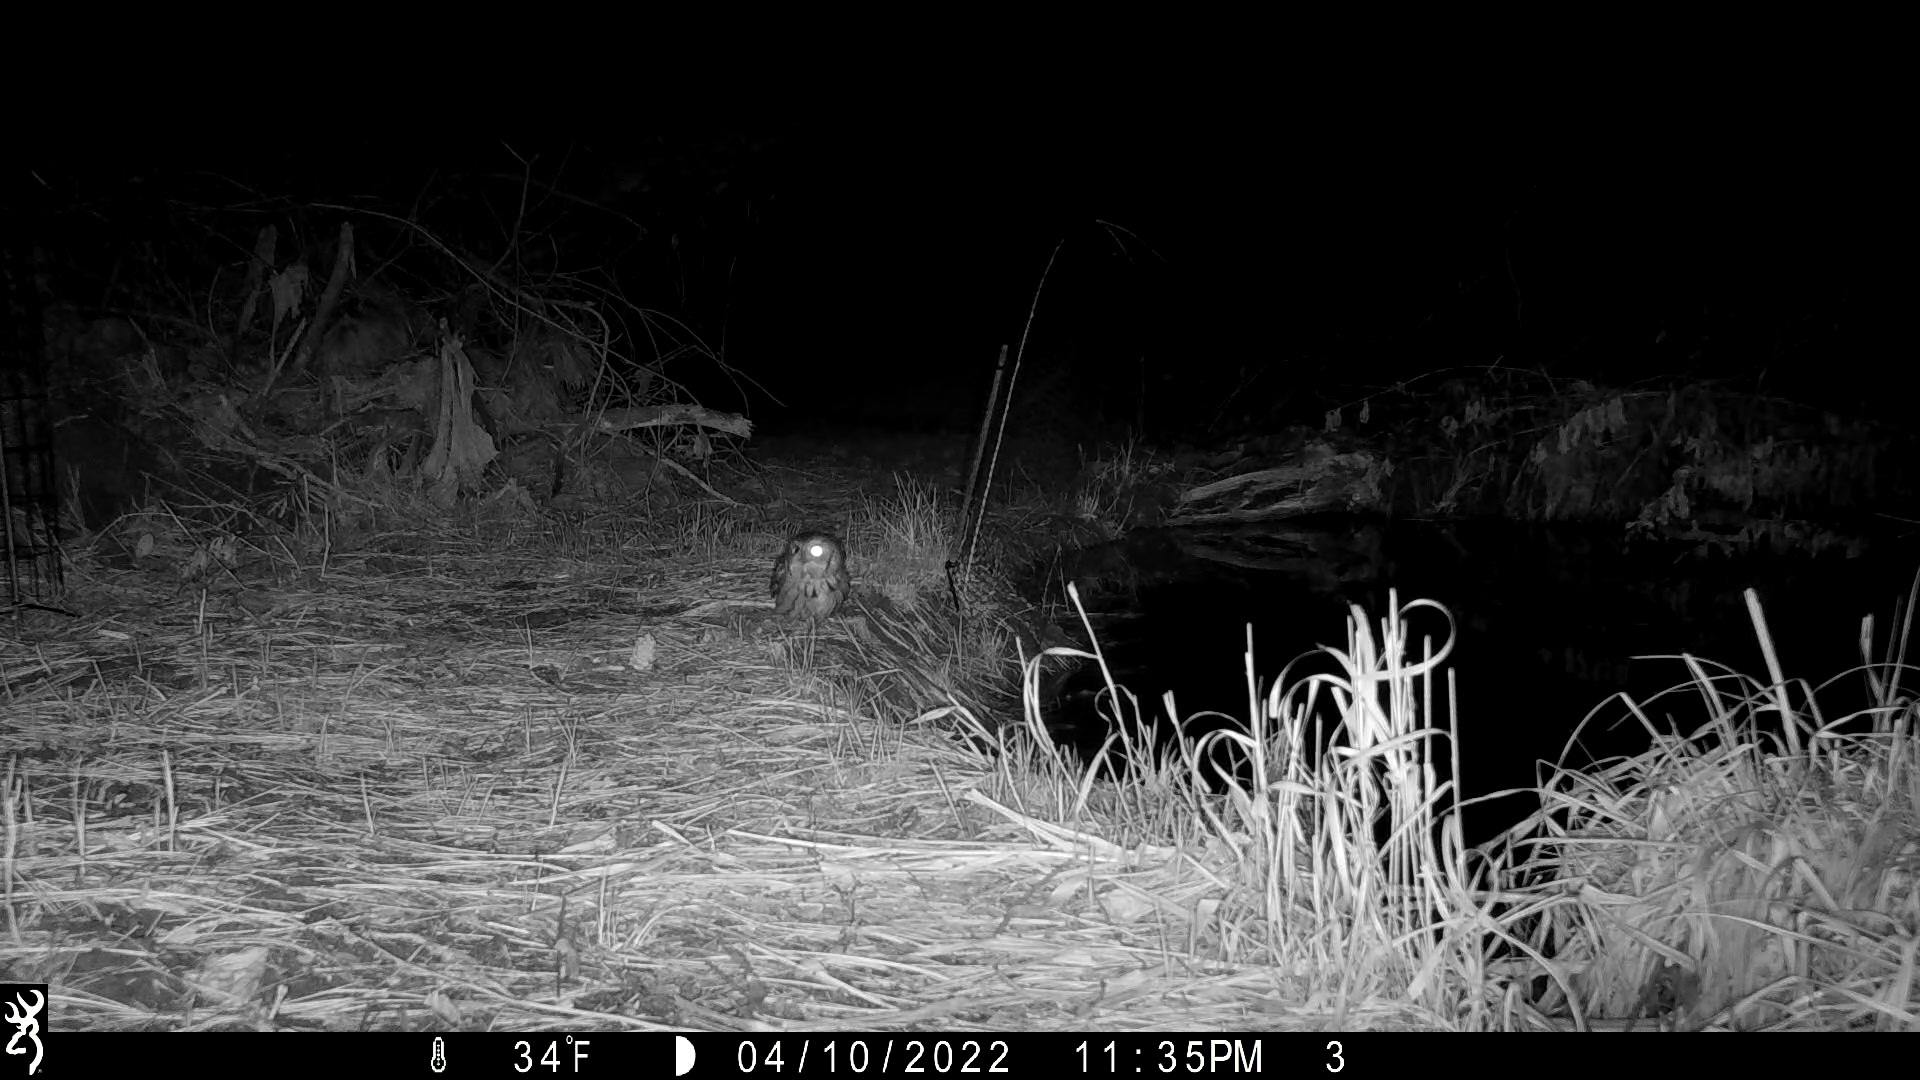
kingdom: Animalia
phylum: Chordata
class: Aves
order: Strigiformes
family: Strigidae
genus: Megascops
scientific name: Megascops asio
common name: Eastern screech-owl
